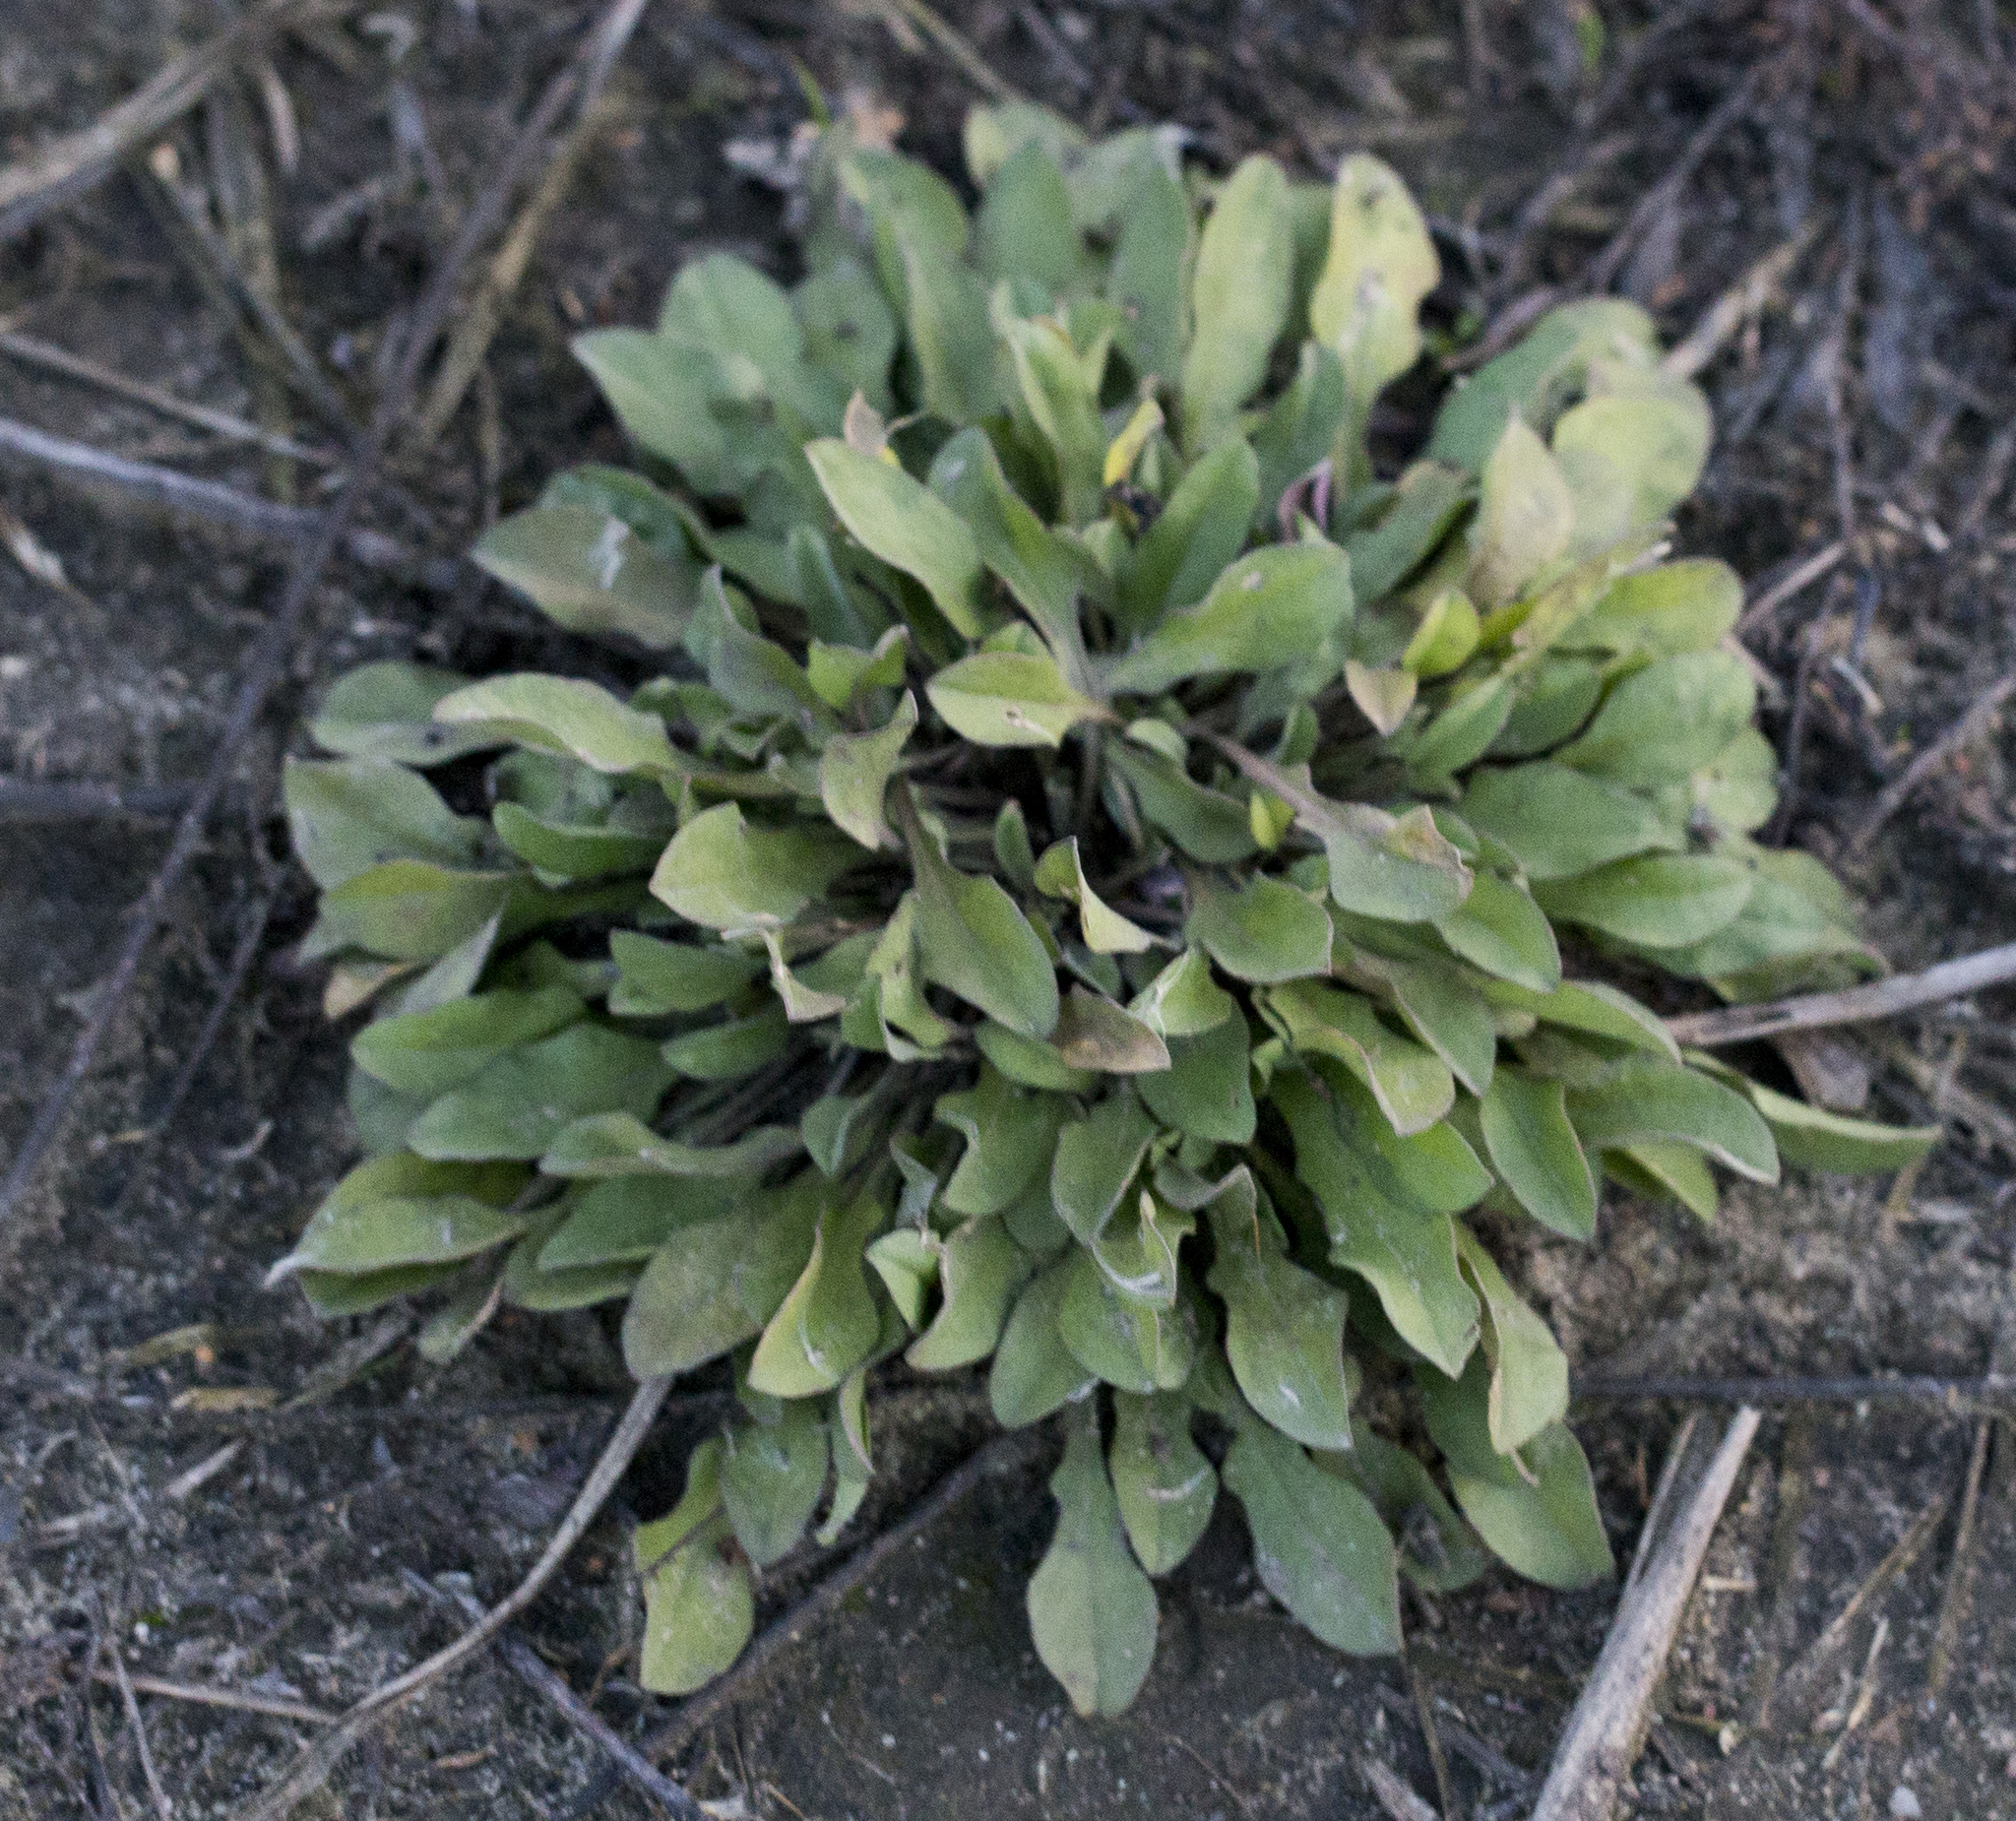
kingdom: Plantae
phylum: Tracheophyta
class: Magnoliopsida
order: Brassicales
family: Brassicaceae
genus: Berteroa
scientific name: Berteroa incana
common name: Hoary alison
